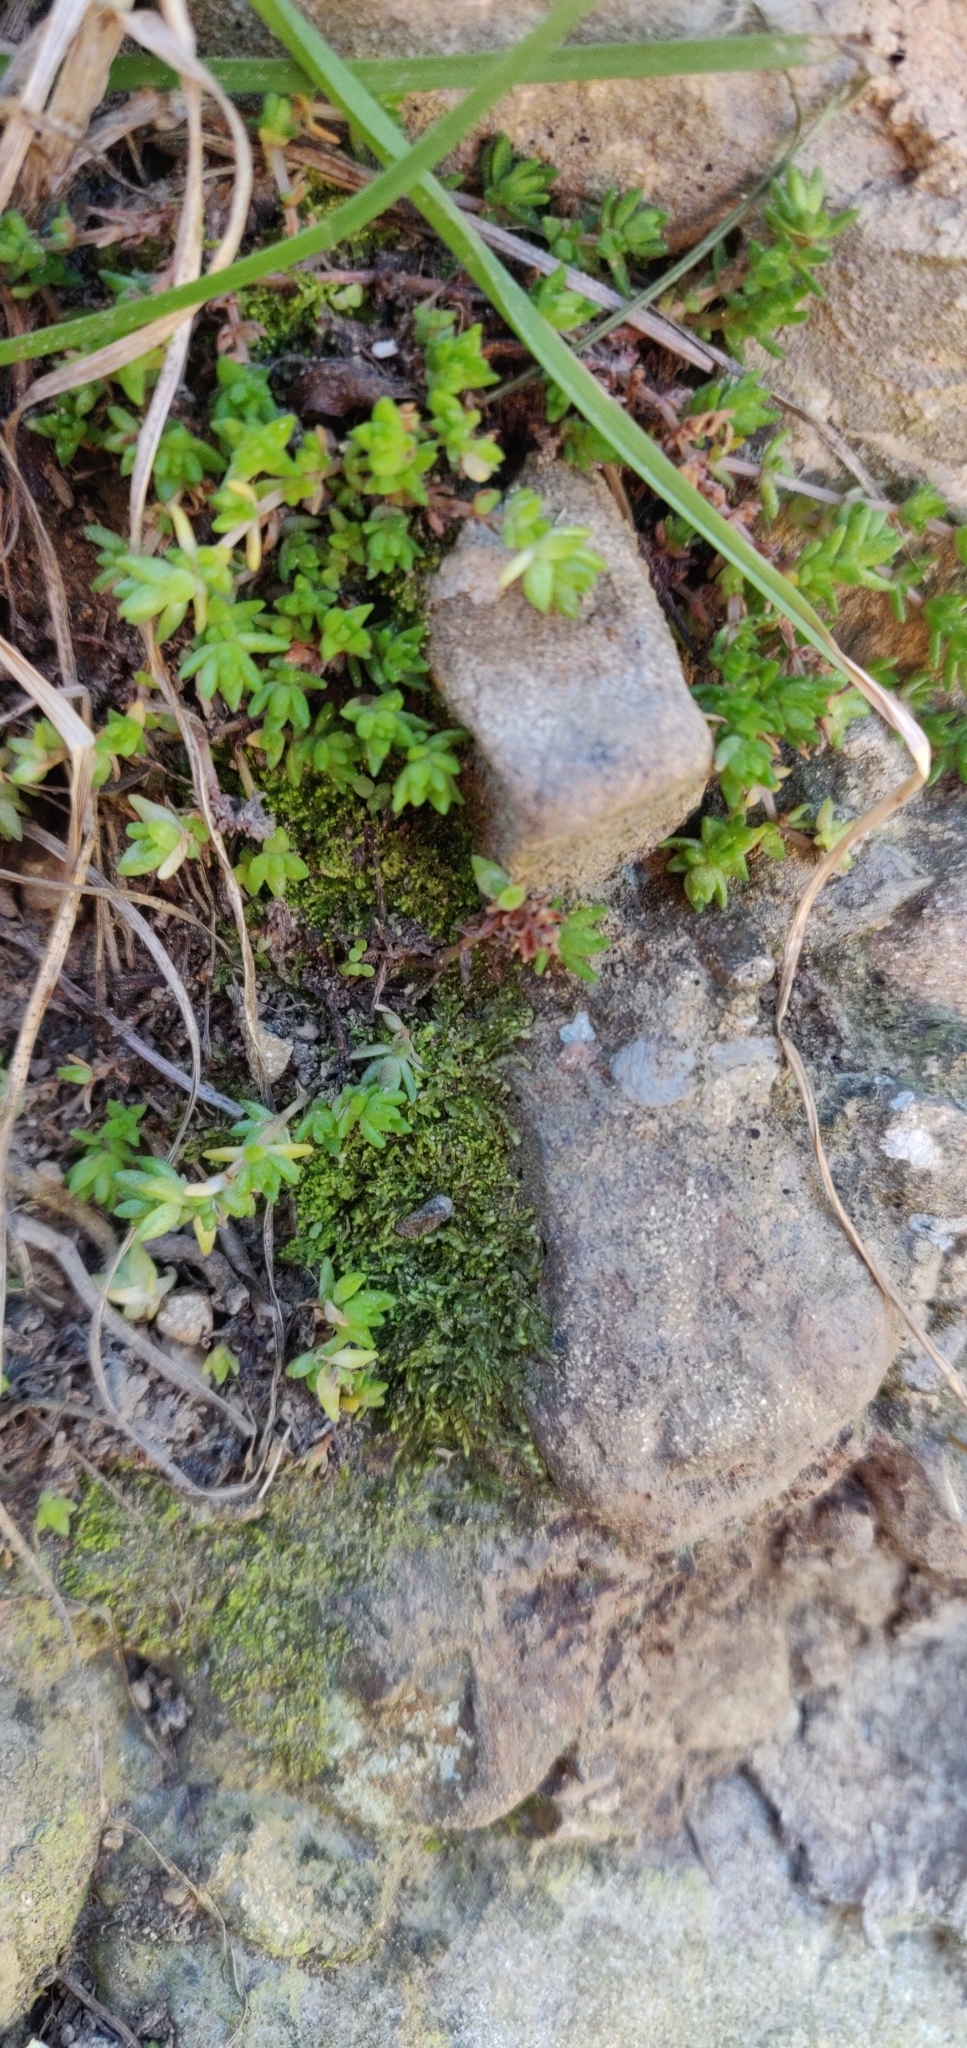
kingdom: Plantae
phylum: Tracheophyta
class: Magnoliopsida
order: Saxifragales
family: Crassulaceae
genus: Crassula
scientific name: Crassula mataikona
